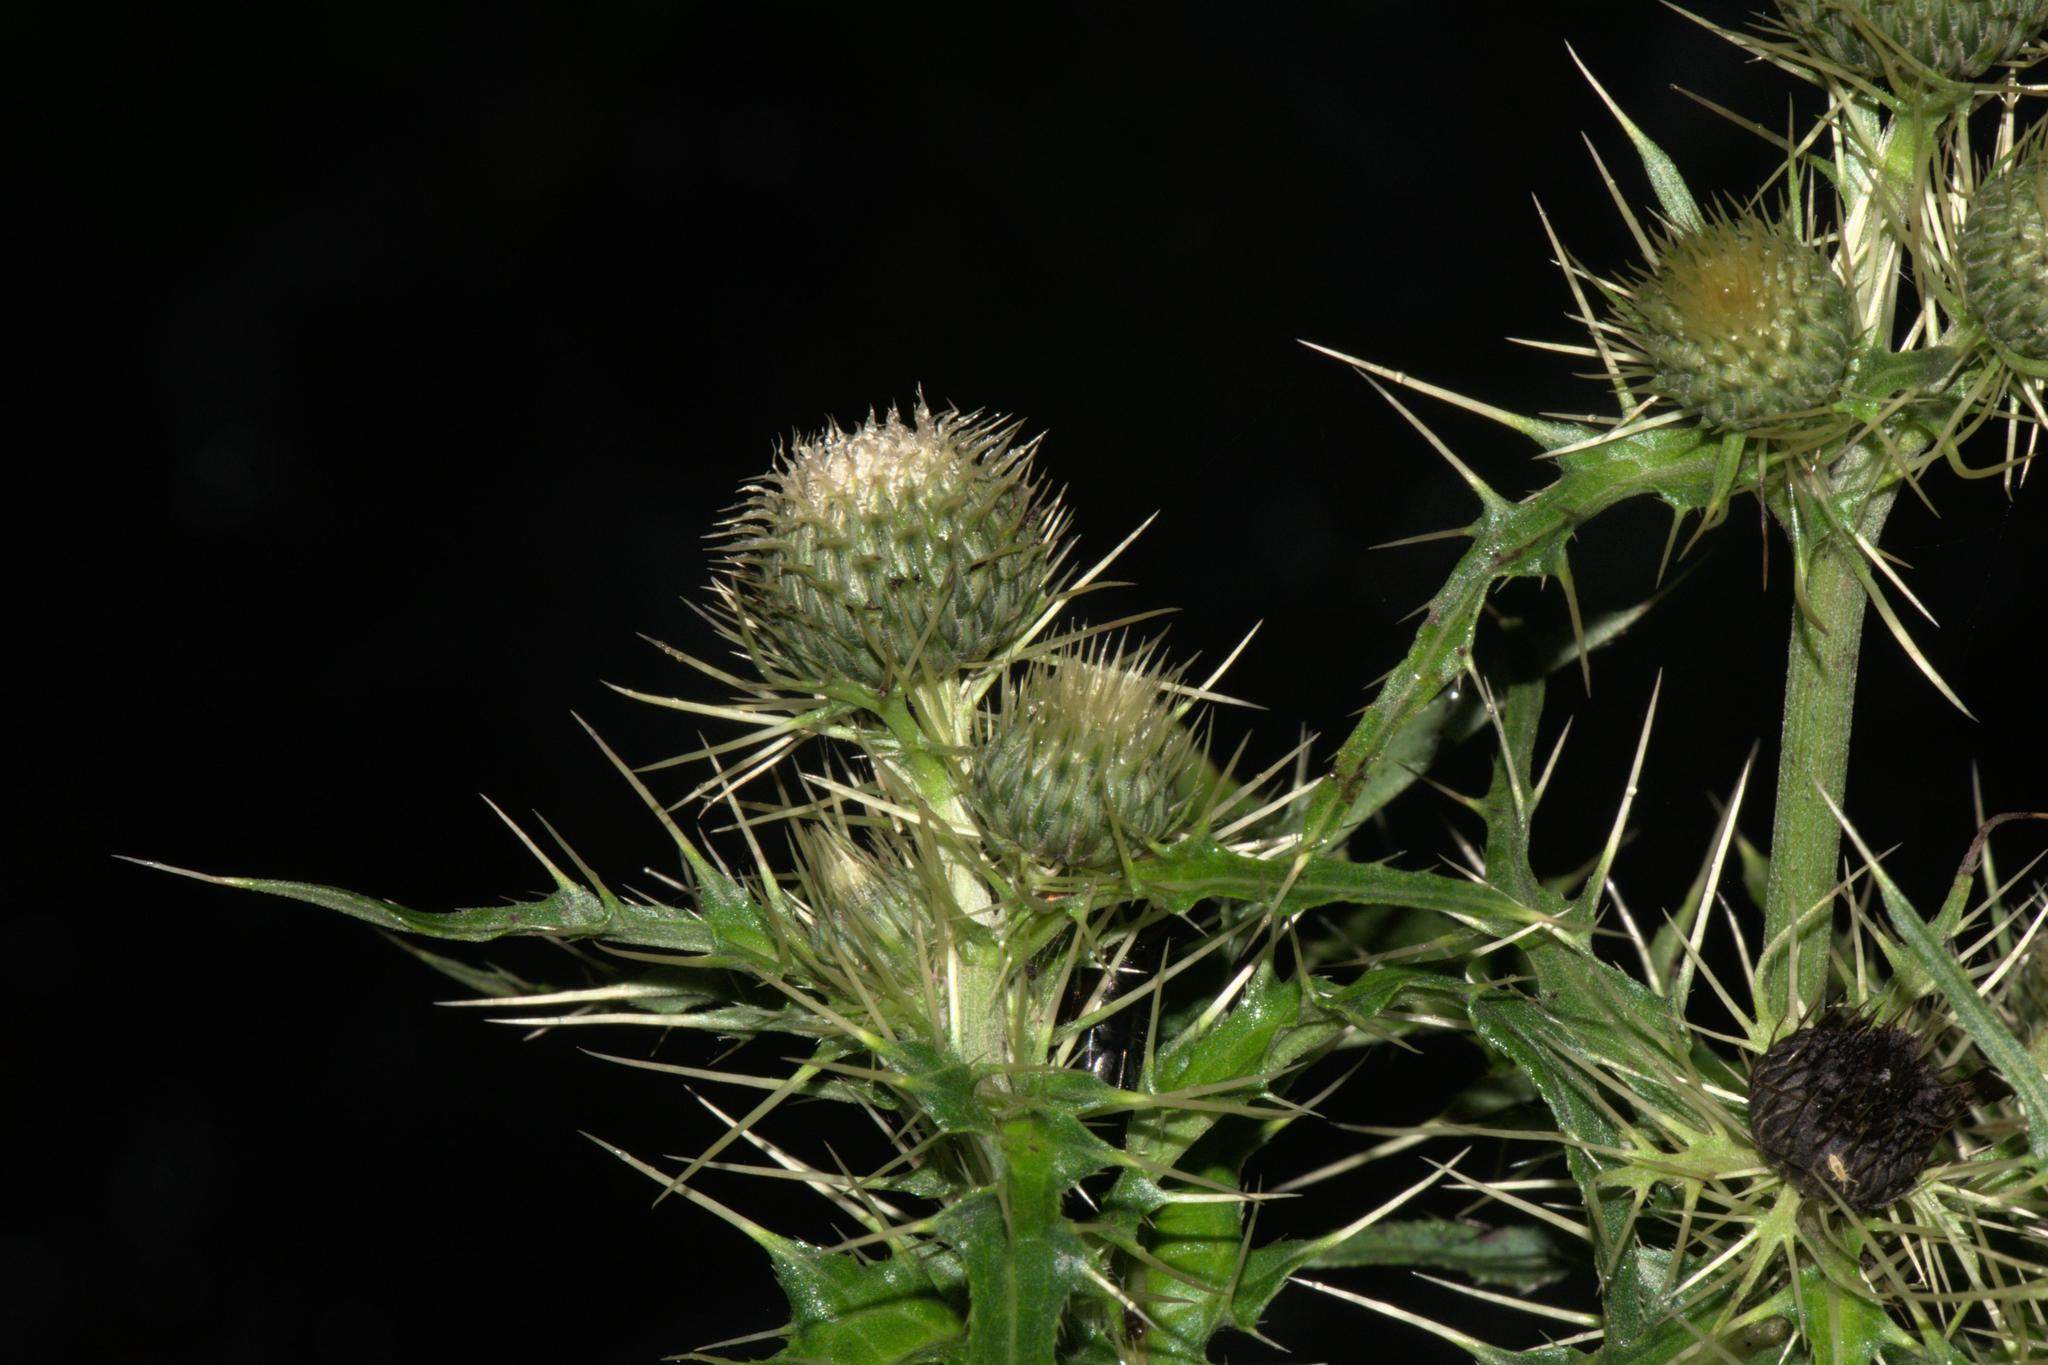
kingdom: Plantae
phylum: Tracheophyta
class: Magnoliopsida
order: Asterales
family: Asteraceae
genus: Lophiolepis
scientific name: Lophiolepis veruta
